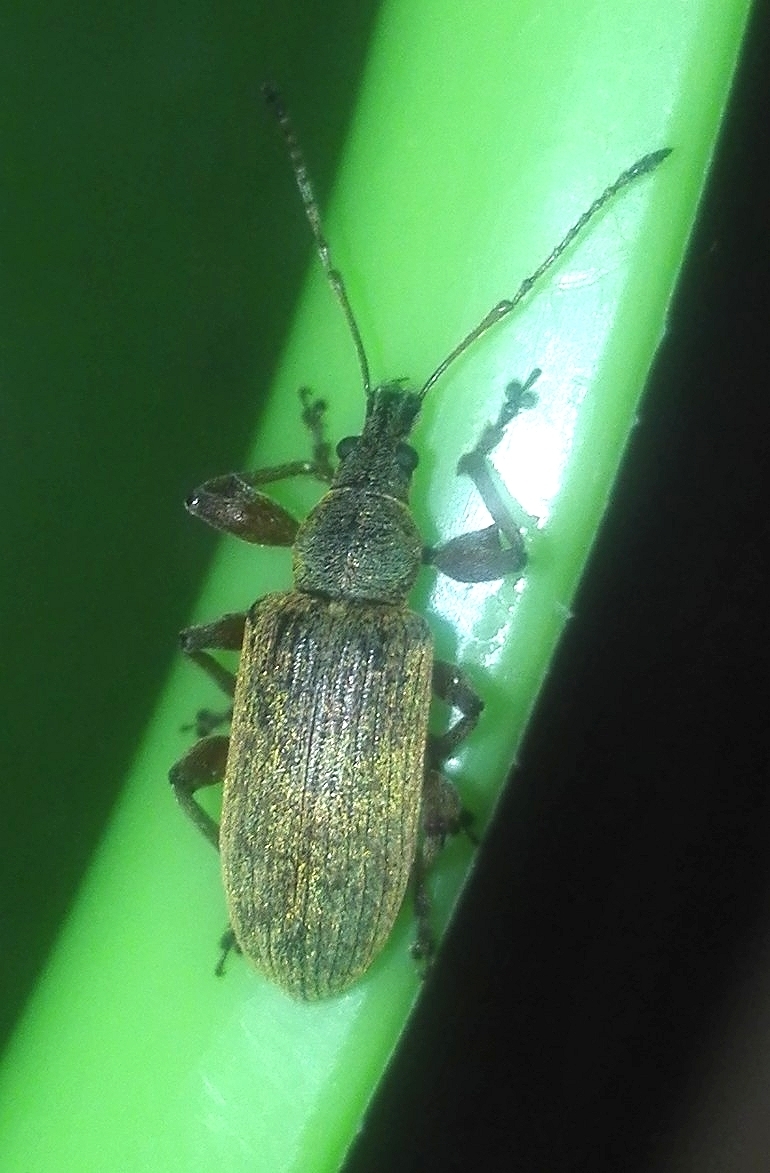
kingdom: Animalia
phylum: Arthropoda
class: Insecta
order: Coleoptera
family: Curculionidae
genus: Phyllobius
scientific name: Phyllobius glaucus
